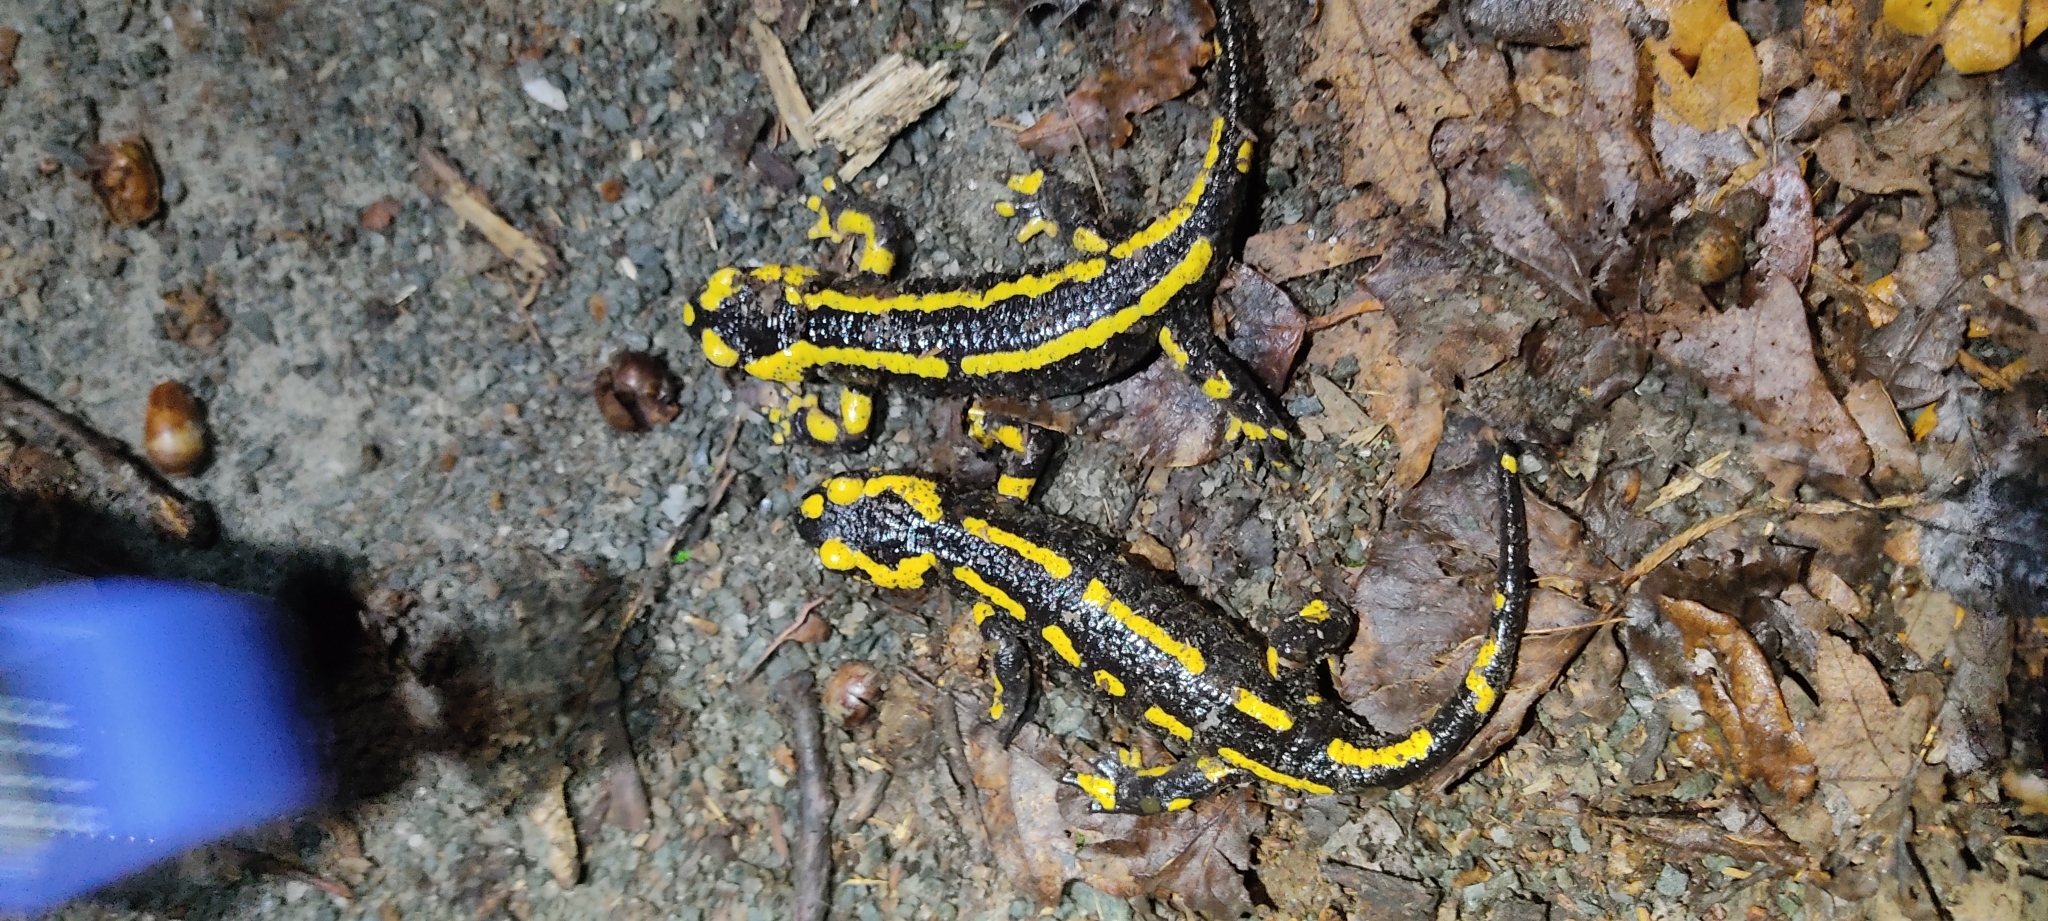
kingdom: Animalia
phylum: Chordata
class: Amphibia
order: Caudata
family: Salamandridae
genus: Salamandra
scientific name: Salamandra salamandra
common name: Fire salamander
